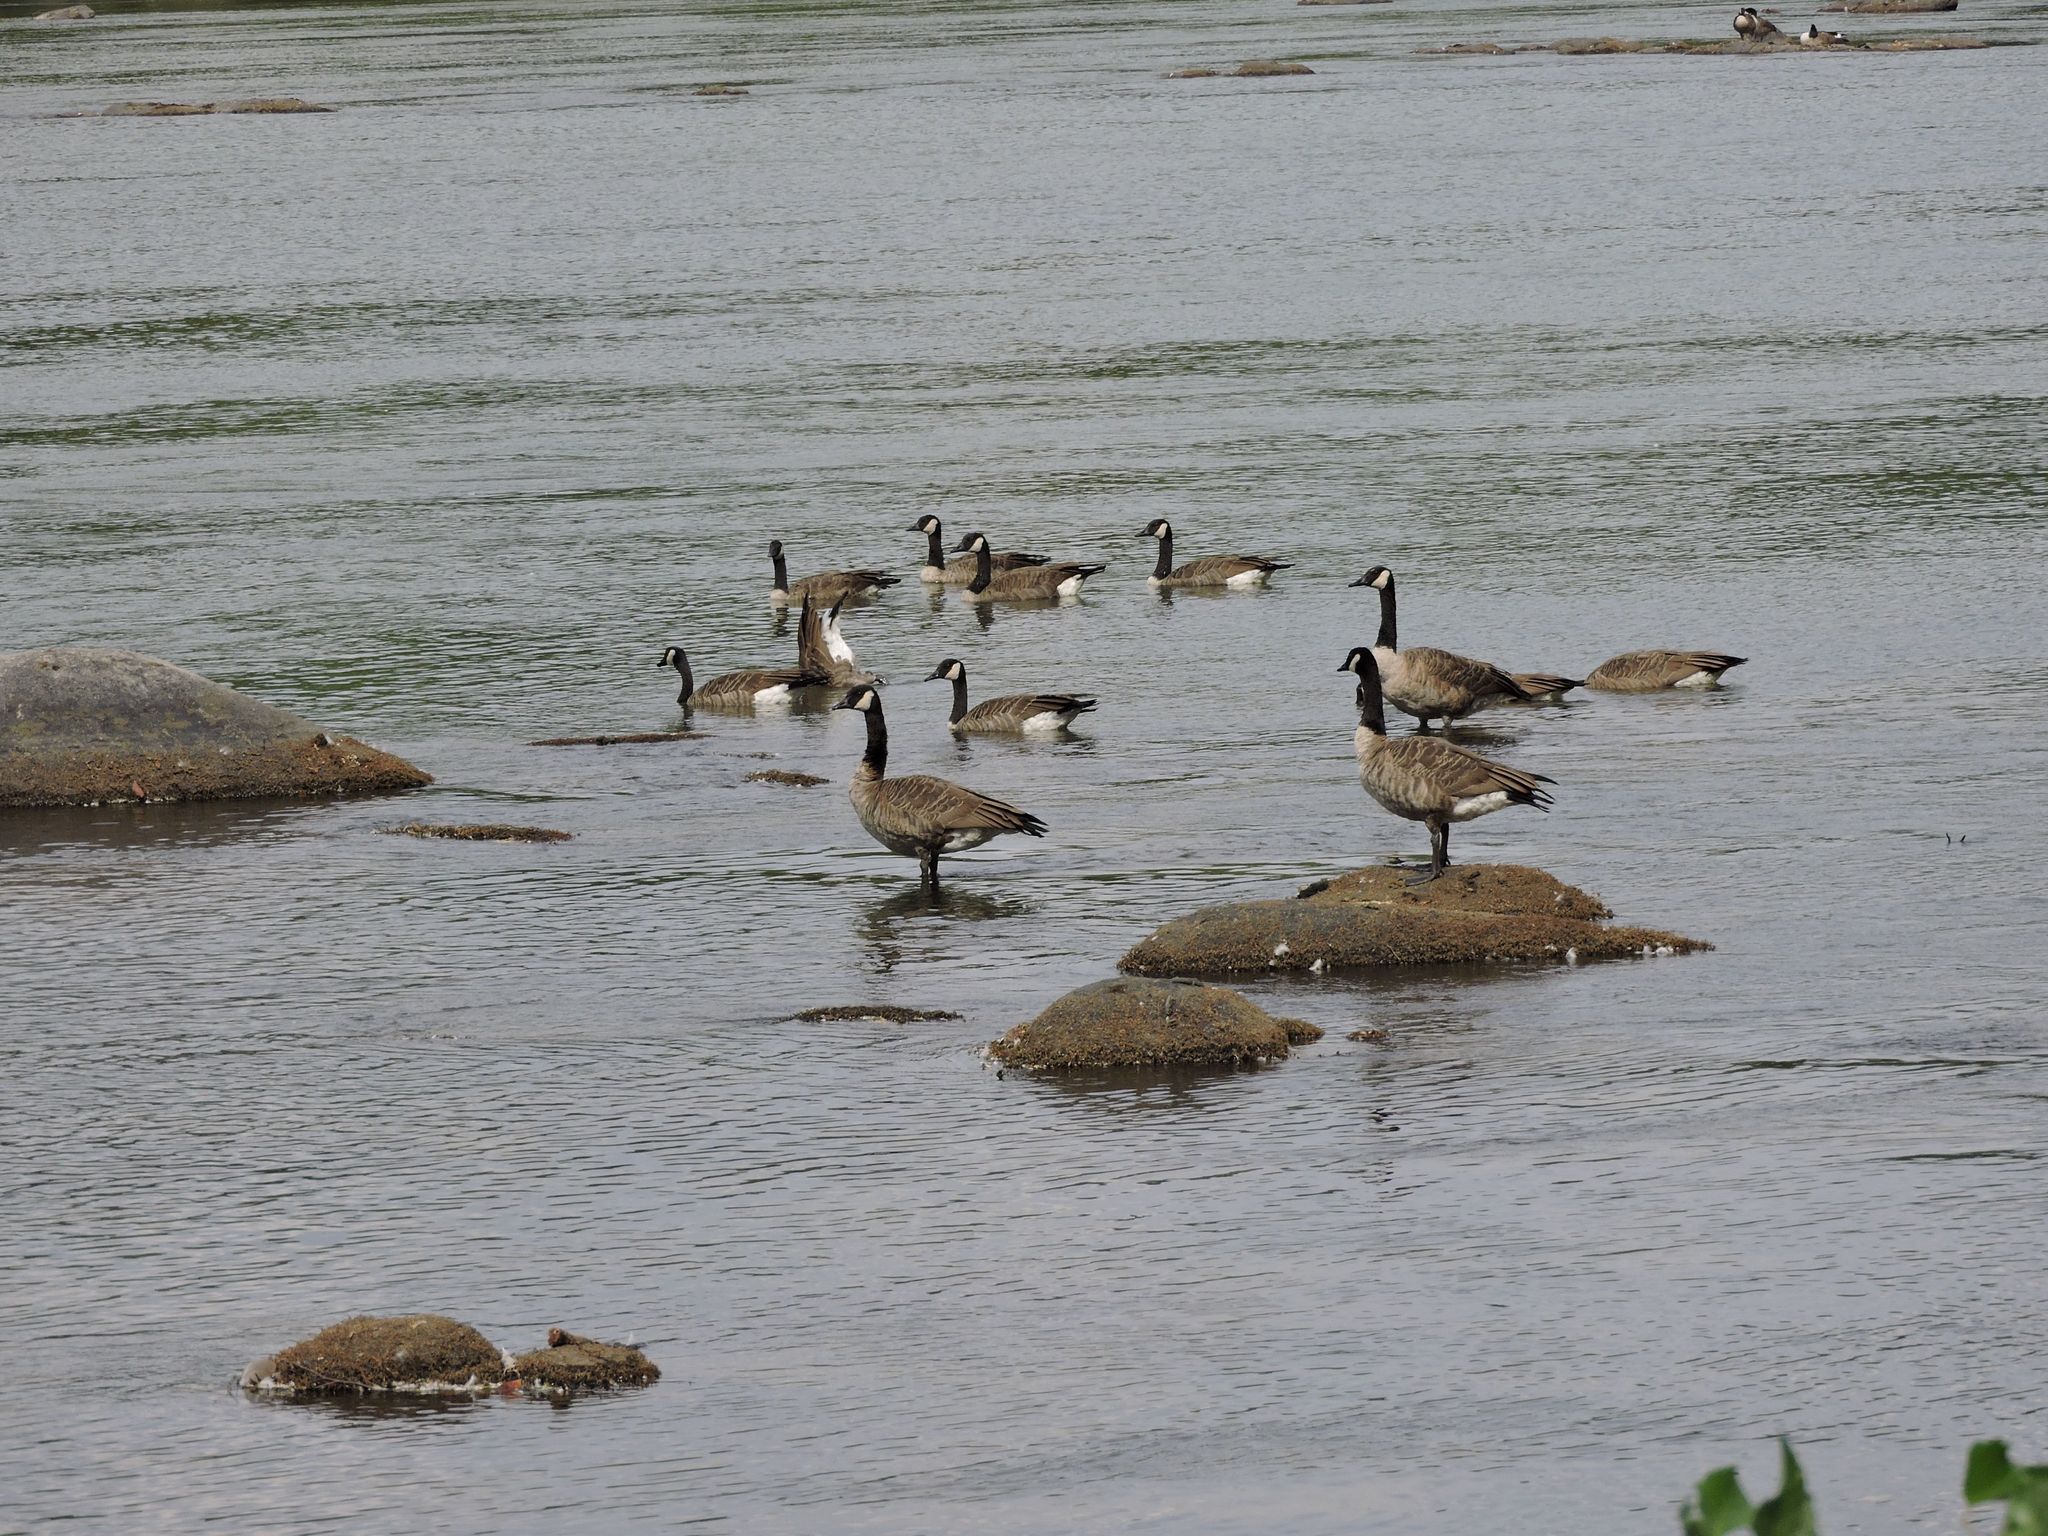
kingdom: Animalia
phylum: Chordata
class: Aves
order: Anseriformes
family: Anatidae
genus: Branta
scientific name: Branta canadensis
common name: Canada goose
